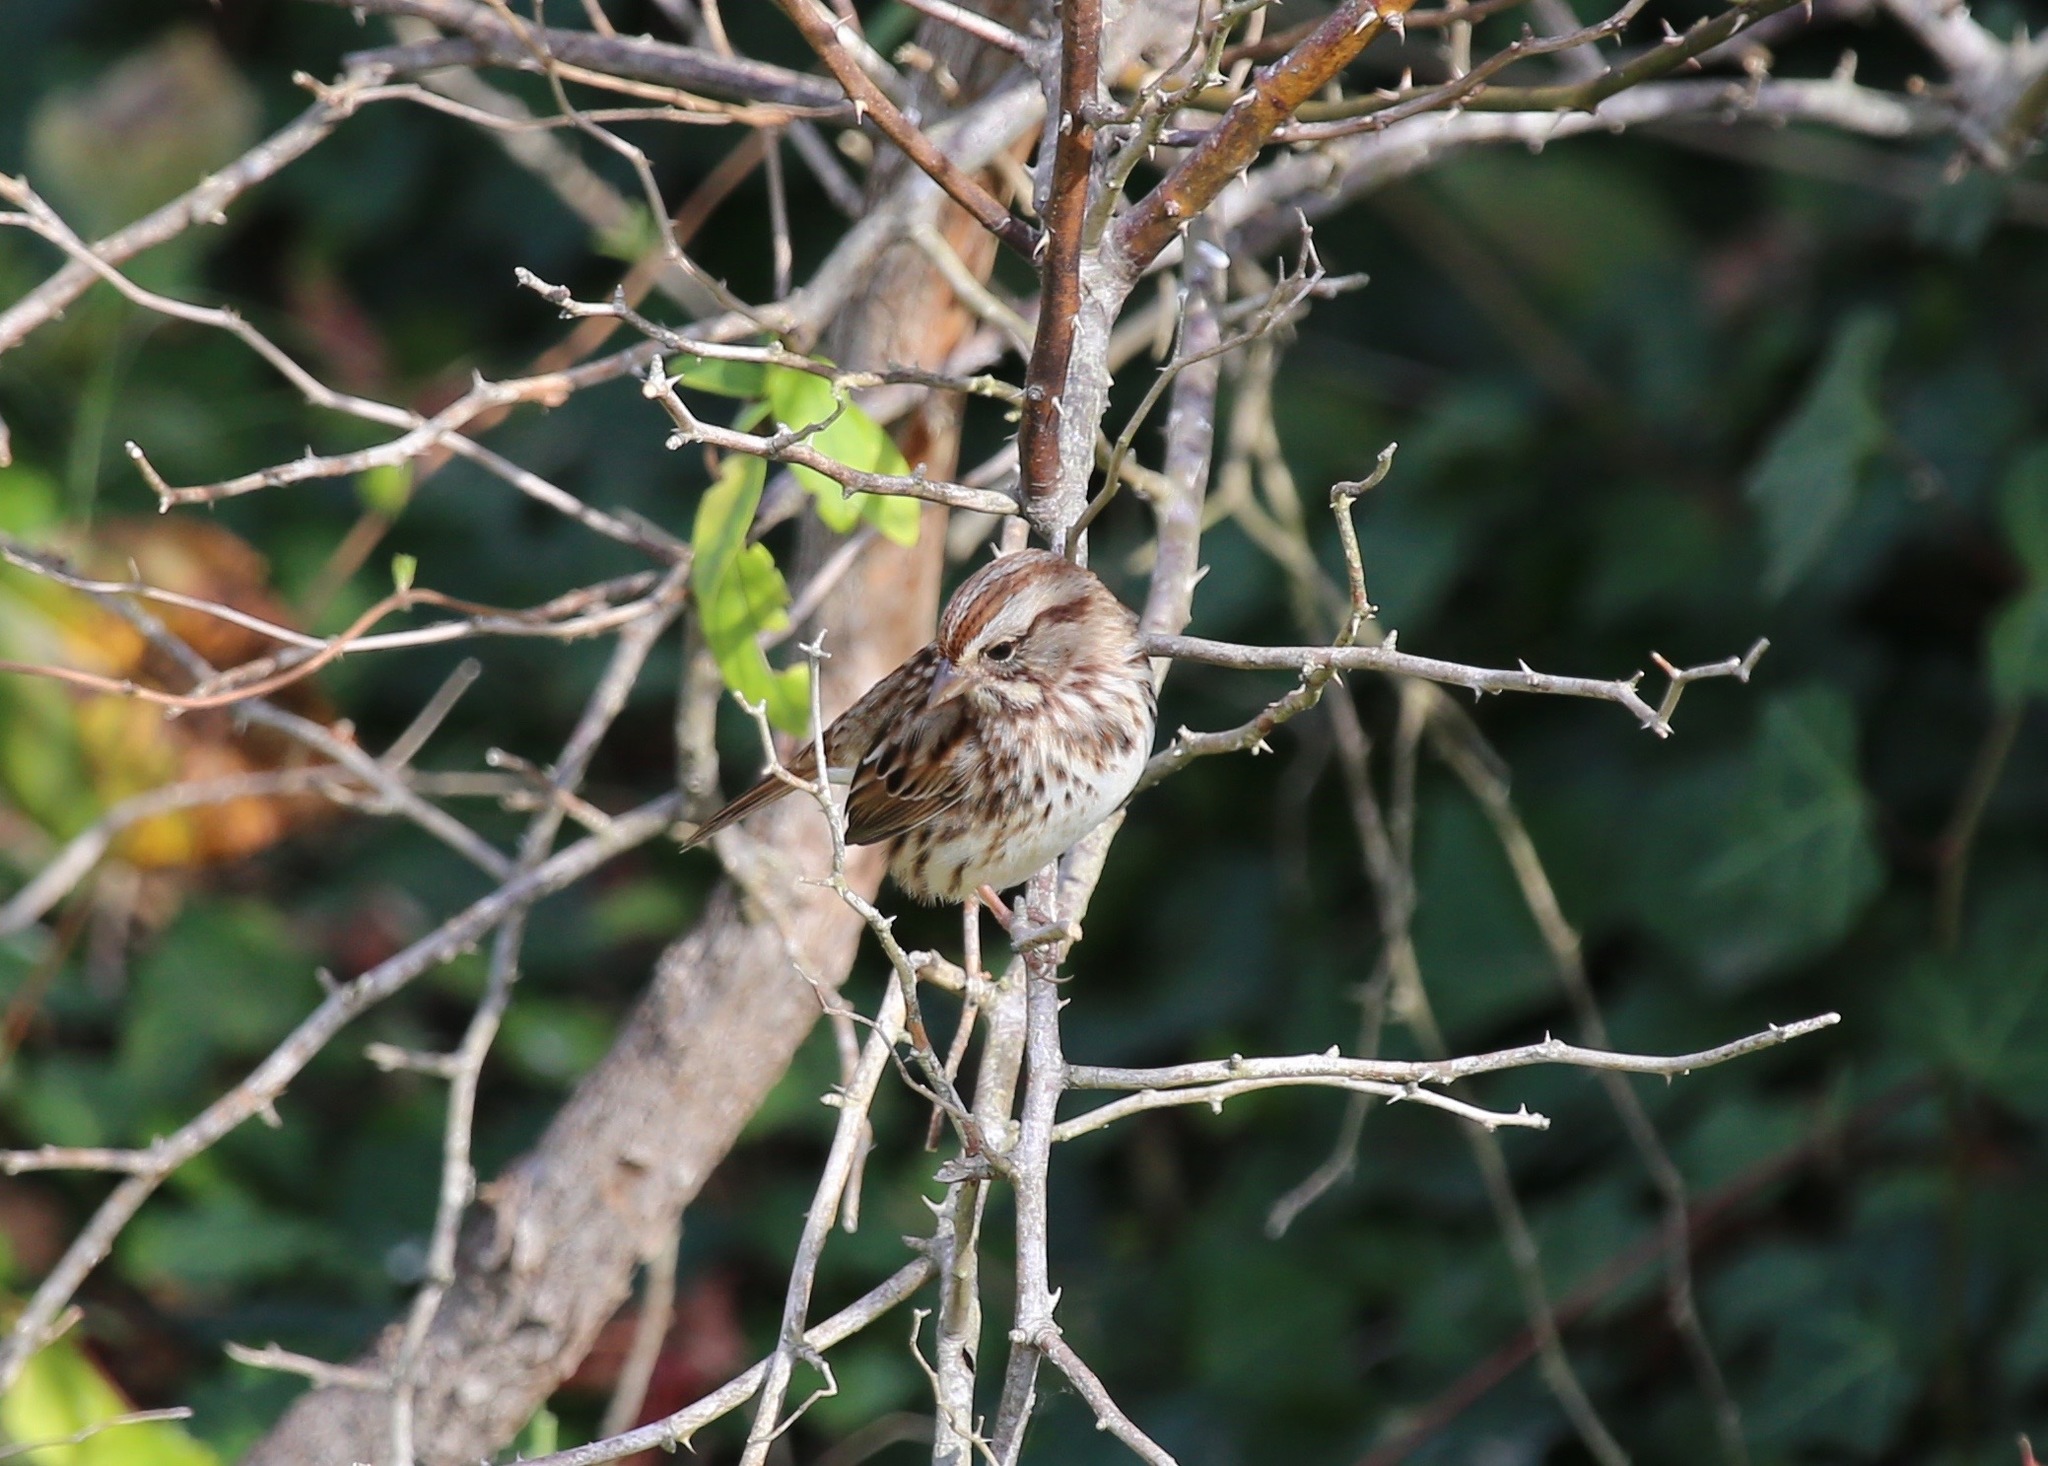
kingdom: Animalia
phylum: Chordata
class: Aves
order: Passeriformes
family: Passerellidae
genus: Melospiza
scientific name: Melospiza melodia
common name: Song sparrow
